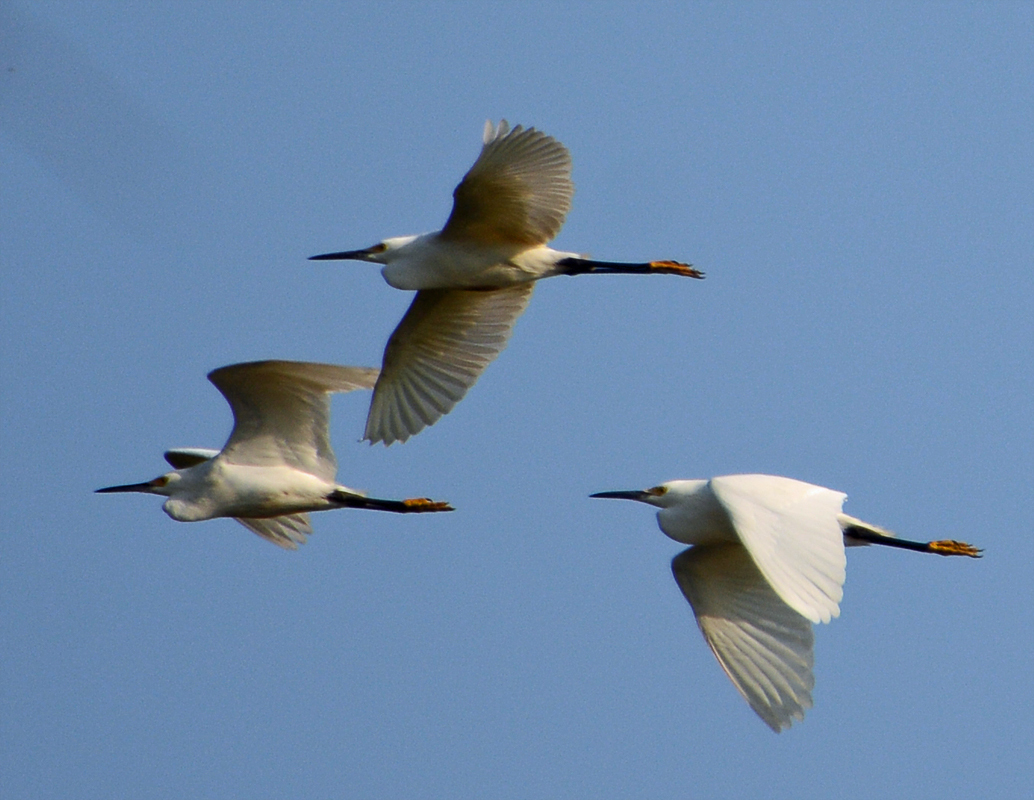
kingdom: Animalia
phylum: Chordata
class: Aves
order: Pelecaniformes
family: Ardeidae
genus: Egretta
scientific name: Egretta thula
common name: Snowy egret
